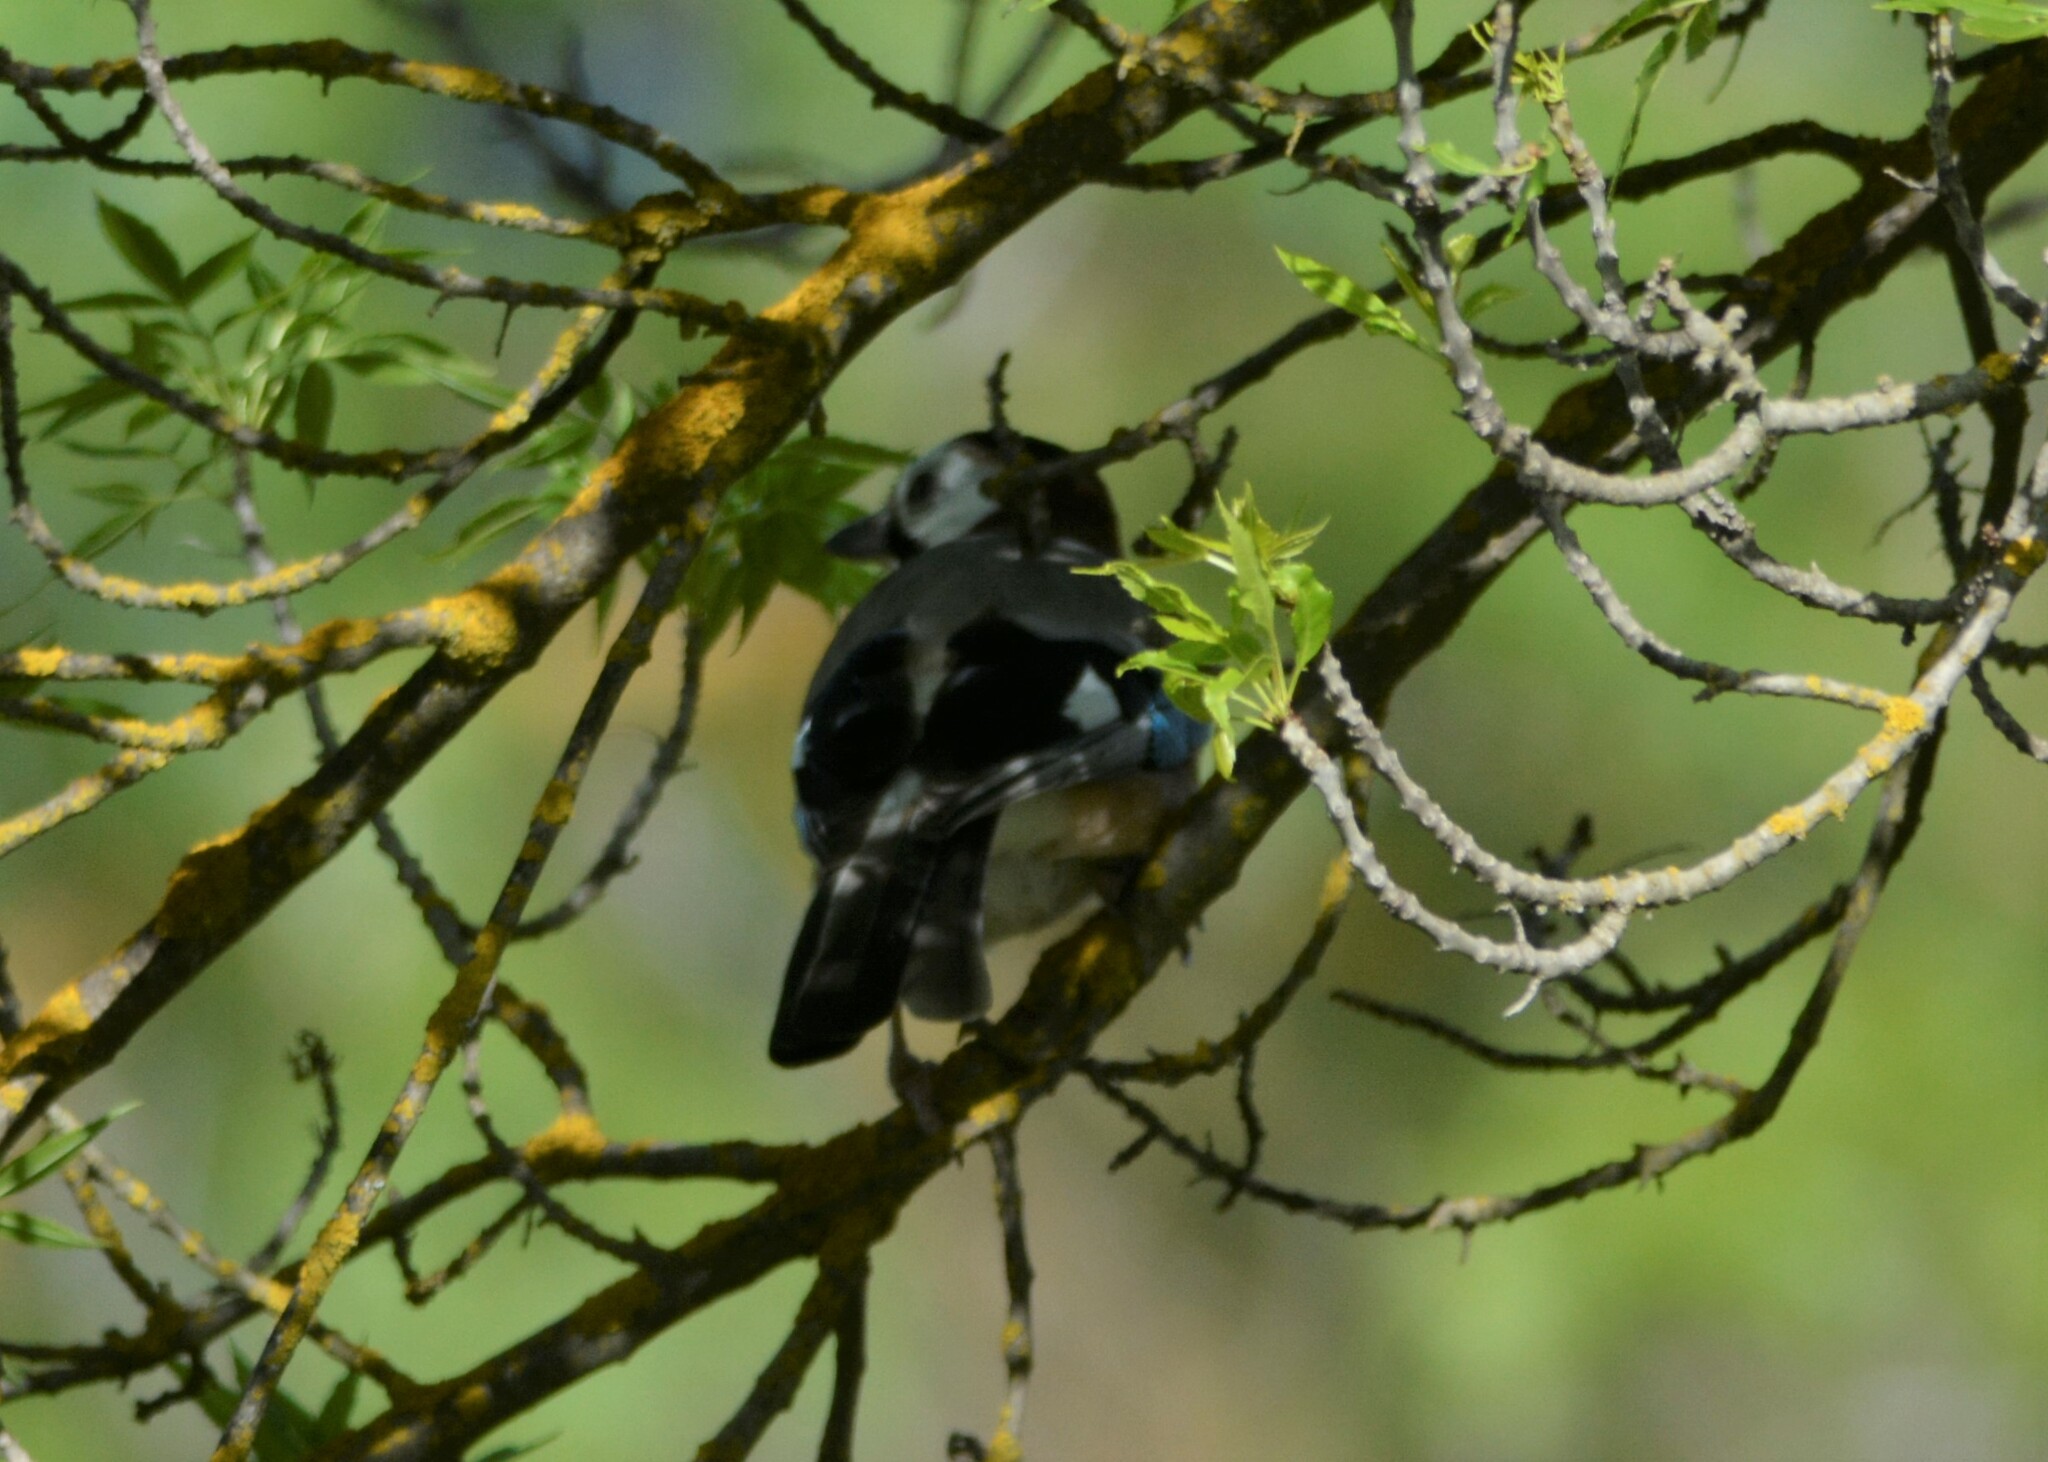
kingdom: Animalia
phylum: Chordata
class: Aves
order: Passeriformes
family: Corvidae
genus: Garrulus
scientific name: Garrulus glandarius
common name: Eurasian jay
